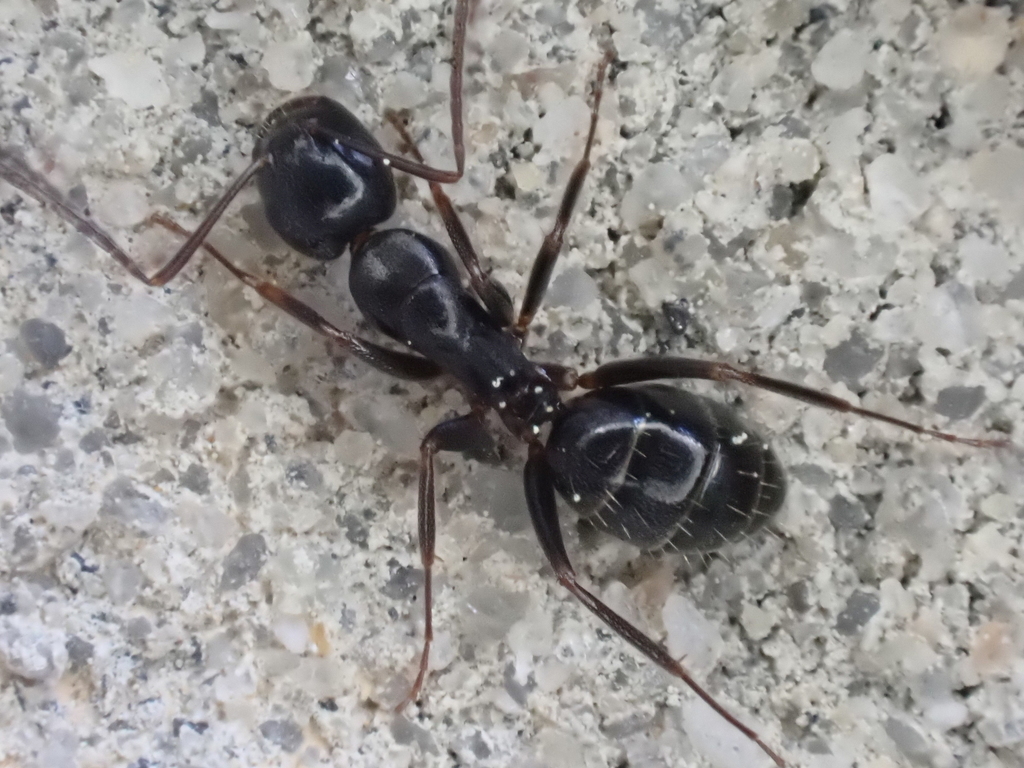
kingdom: Animalia
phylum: Arthropoda
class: Insecta
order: Hymenoptera
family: Formicidae
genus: Camponotus
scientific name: Camponotus nearcticus
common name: Smaller carpenter ant
